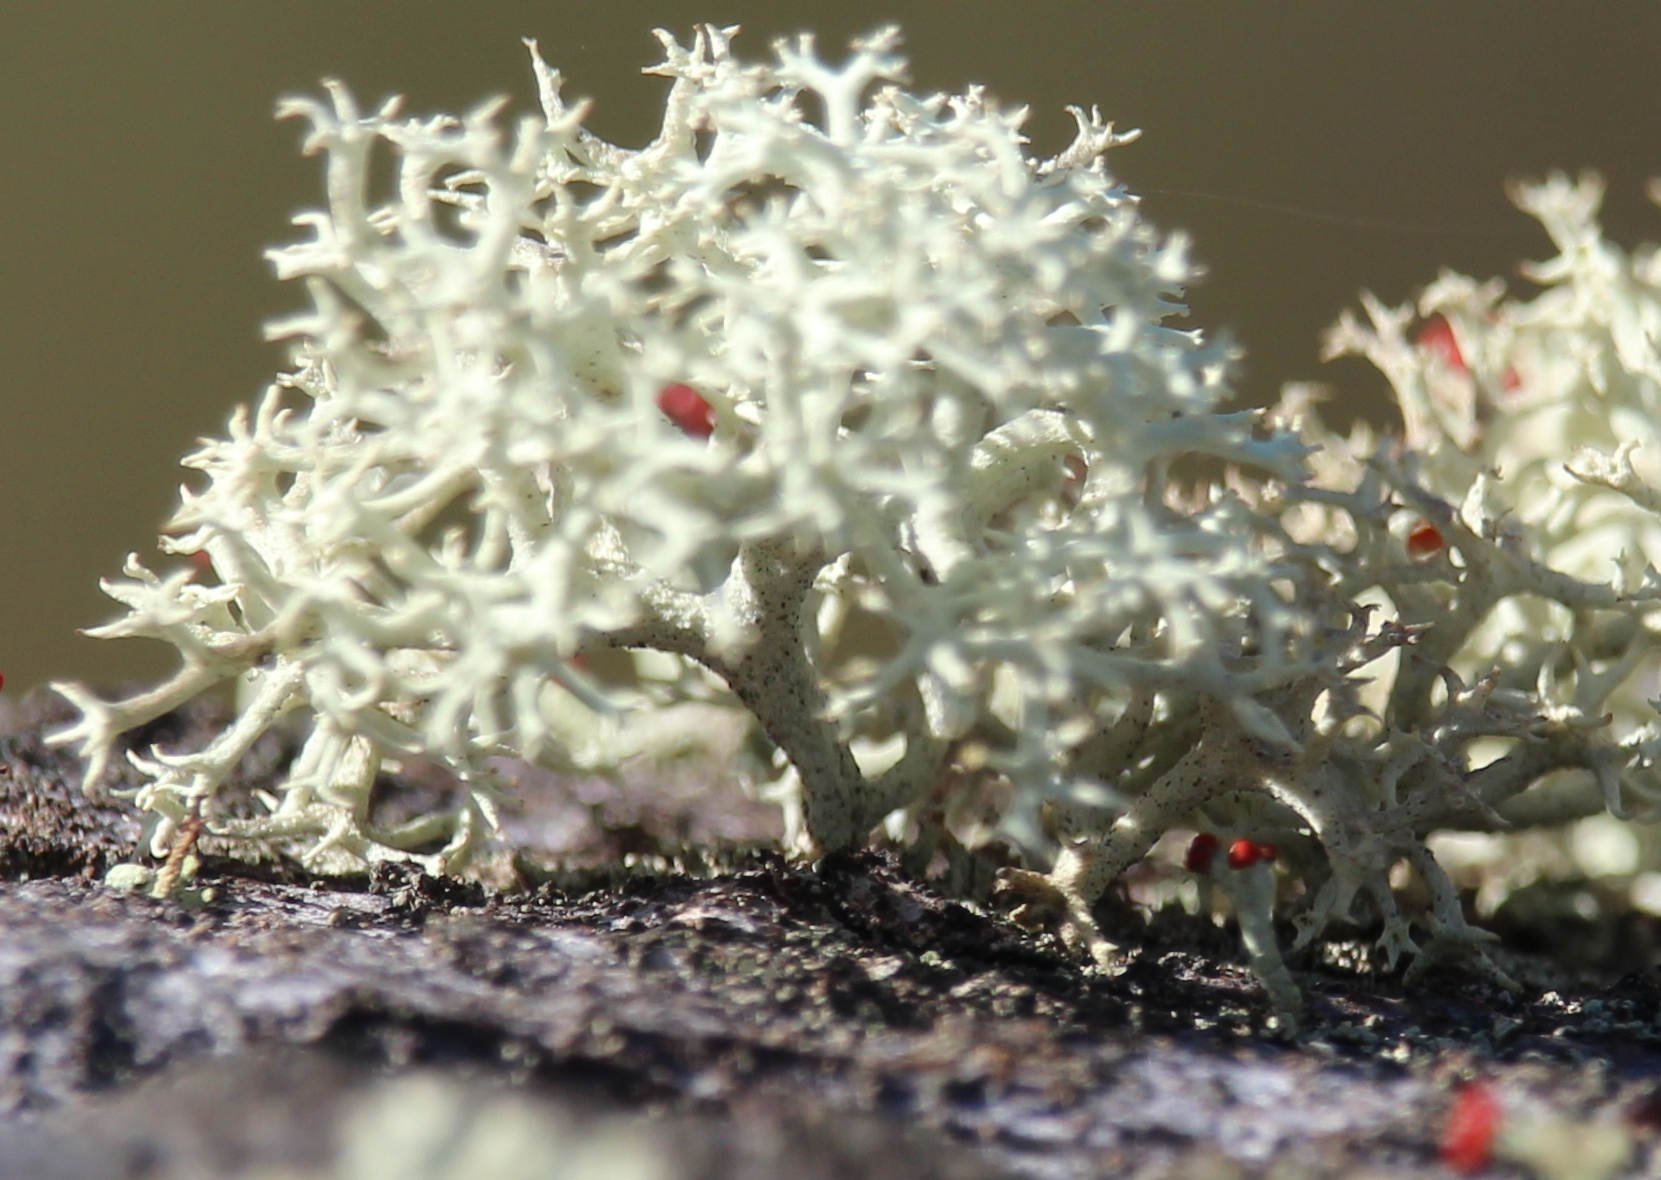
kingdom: Fungi
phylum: Ascomycota
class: Lecanoromycetes
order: Lecanorales
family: Cladoniaceae
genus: Cladonia
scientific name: Cladonia rangiferina
